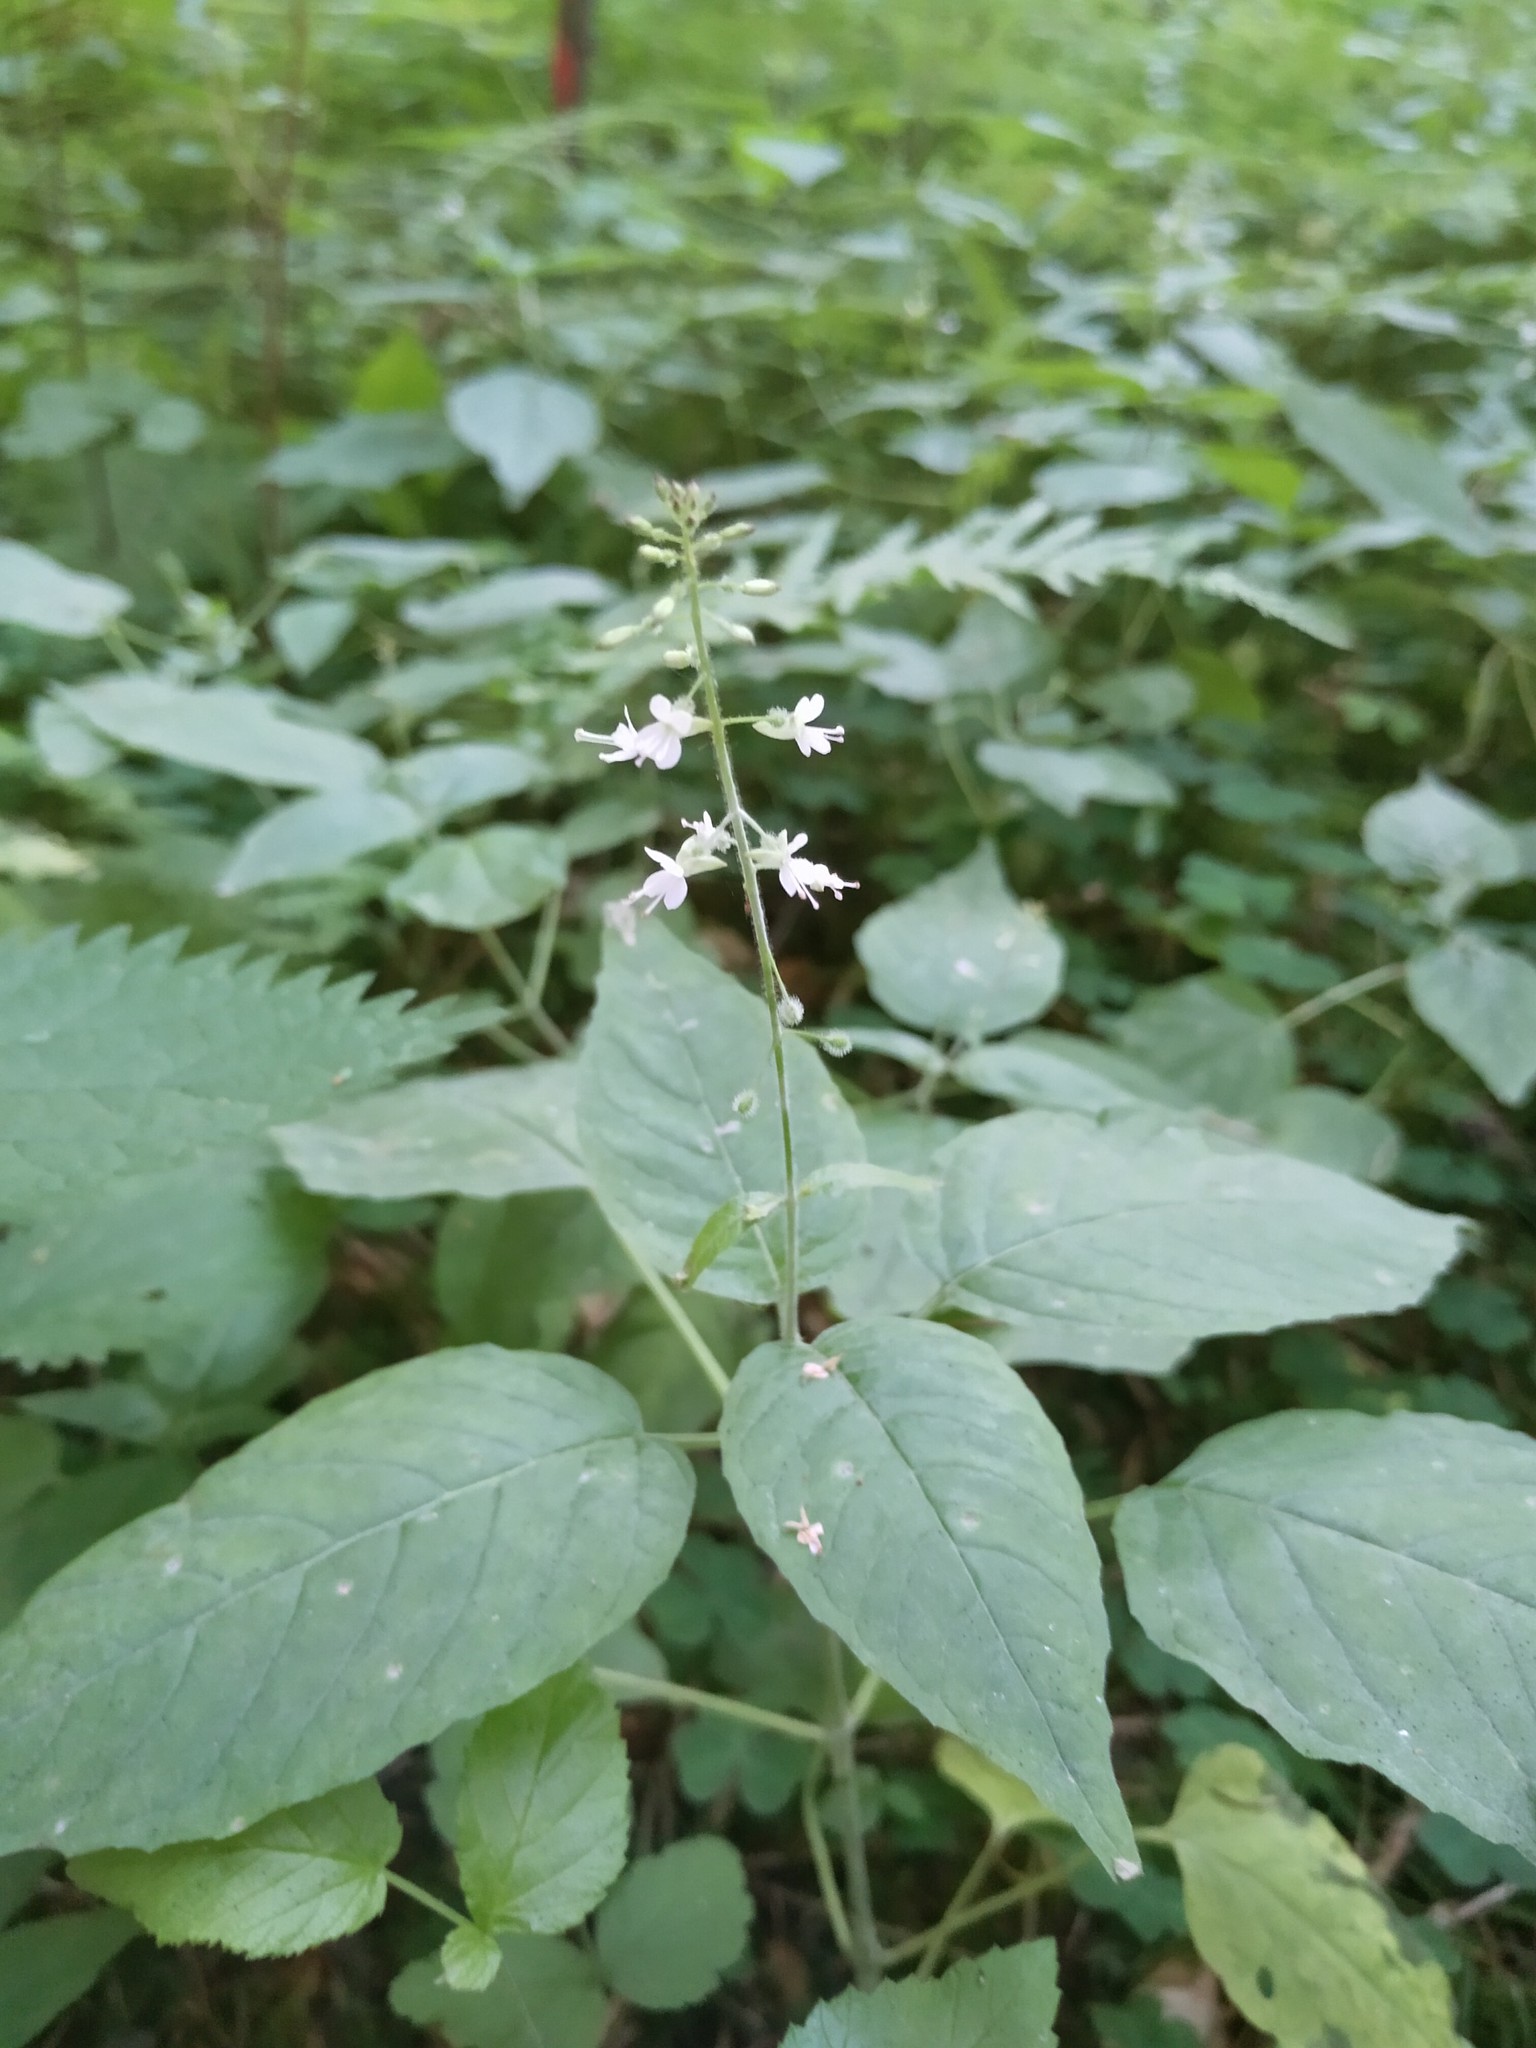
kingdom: Plantae
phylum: Tracheophyta
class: Magnoliopsida
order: Myrtales
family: Onagraceae
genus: Circaea
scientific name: Circaea lutetiana
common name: Enchanter's-nightshade
